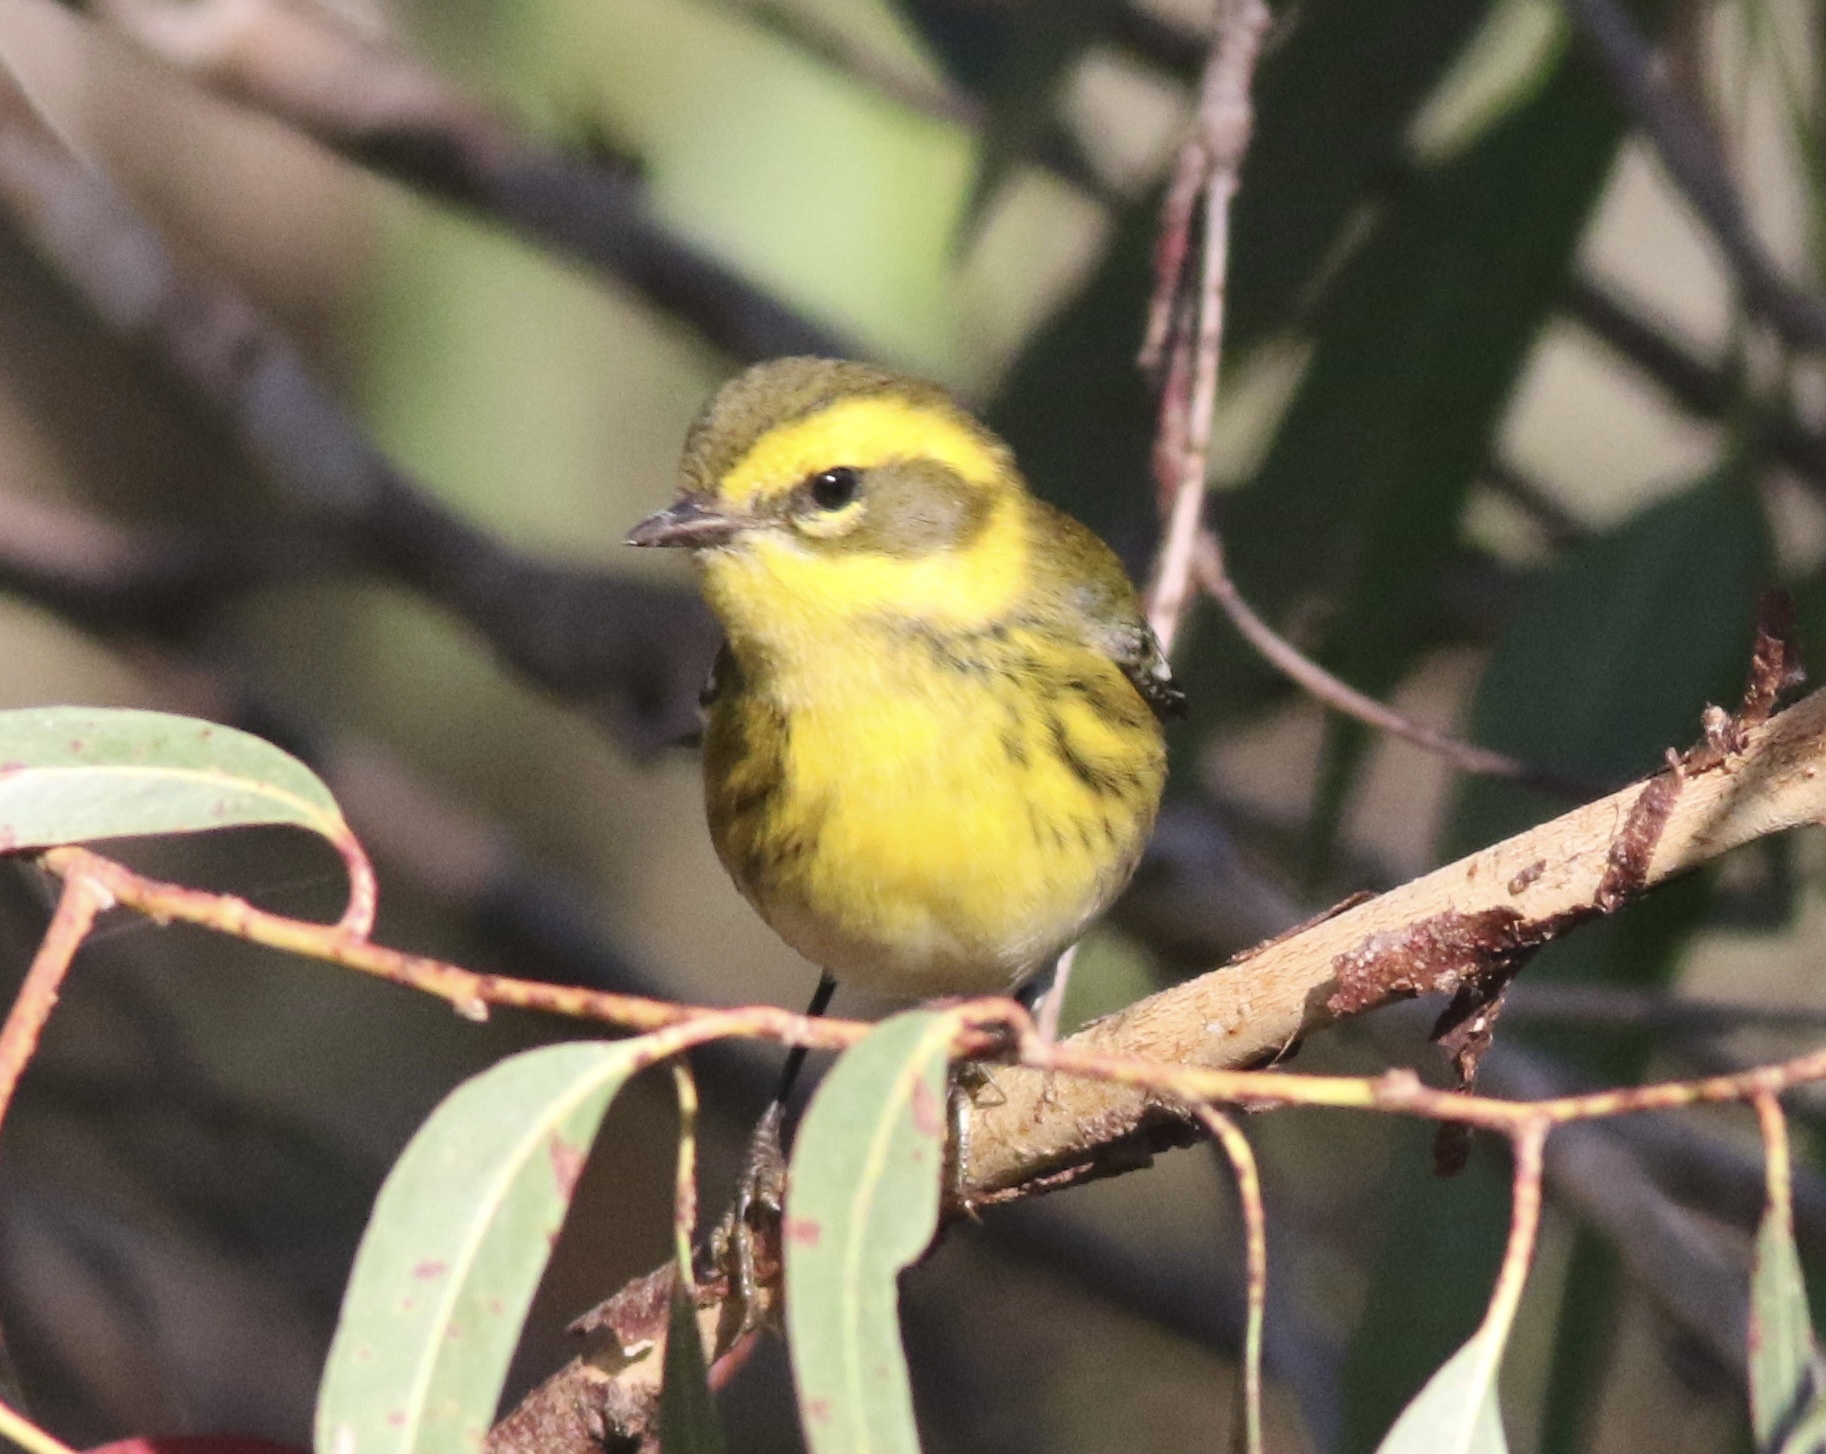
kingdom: Animalia
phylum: Chordata
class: Aves
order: Passeriformes
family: Parulidae
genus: Setophaga
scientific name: Setophaga townsendi
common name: Townsend's warbler
